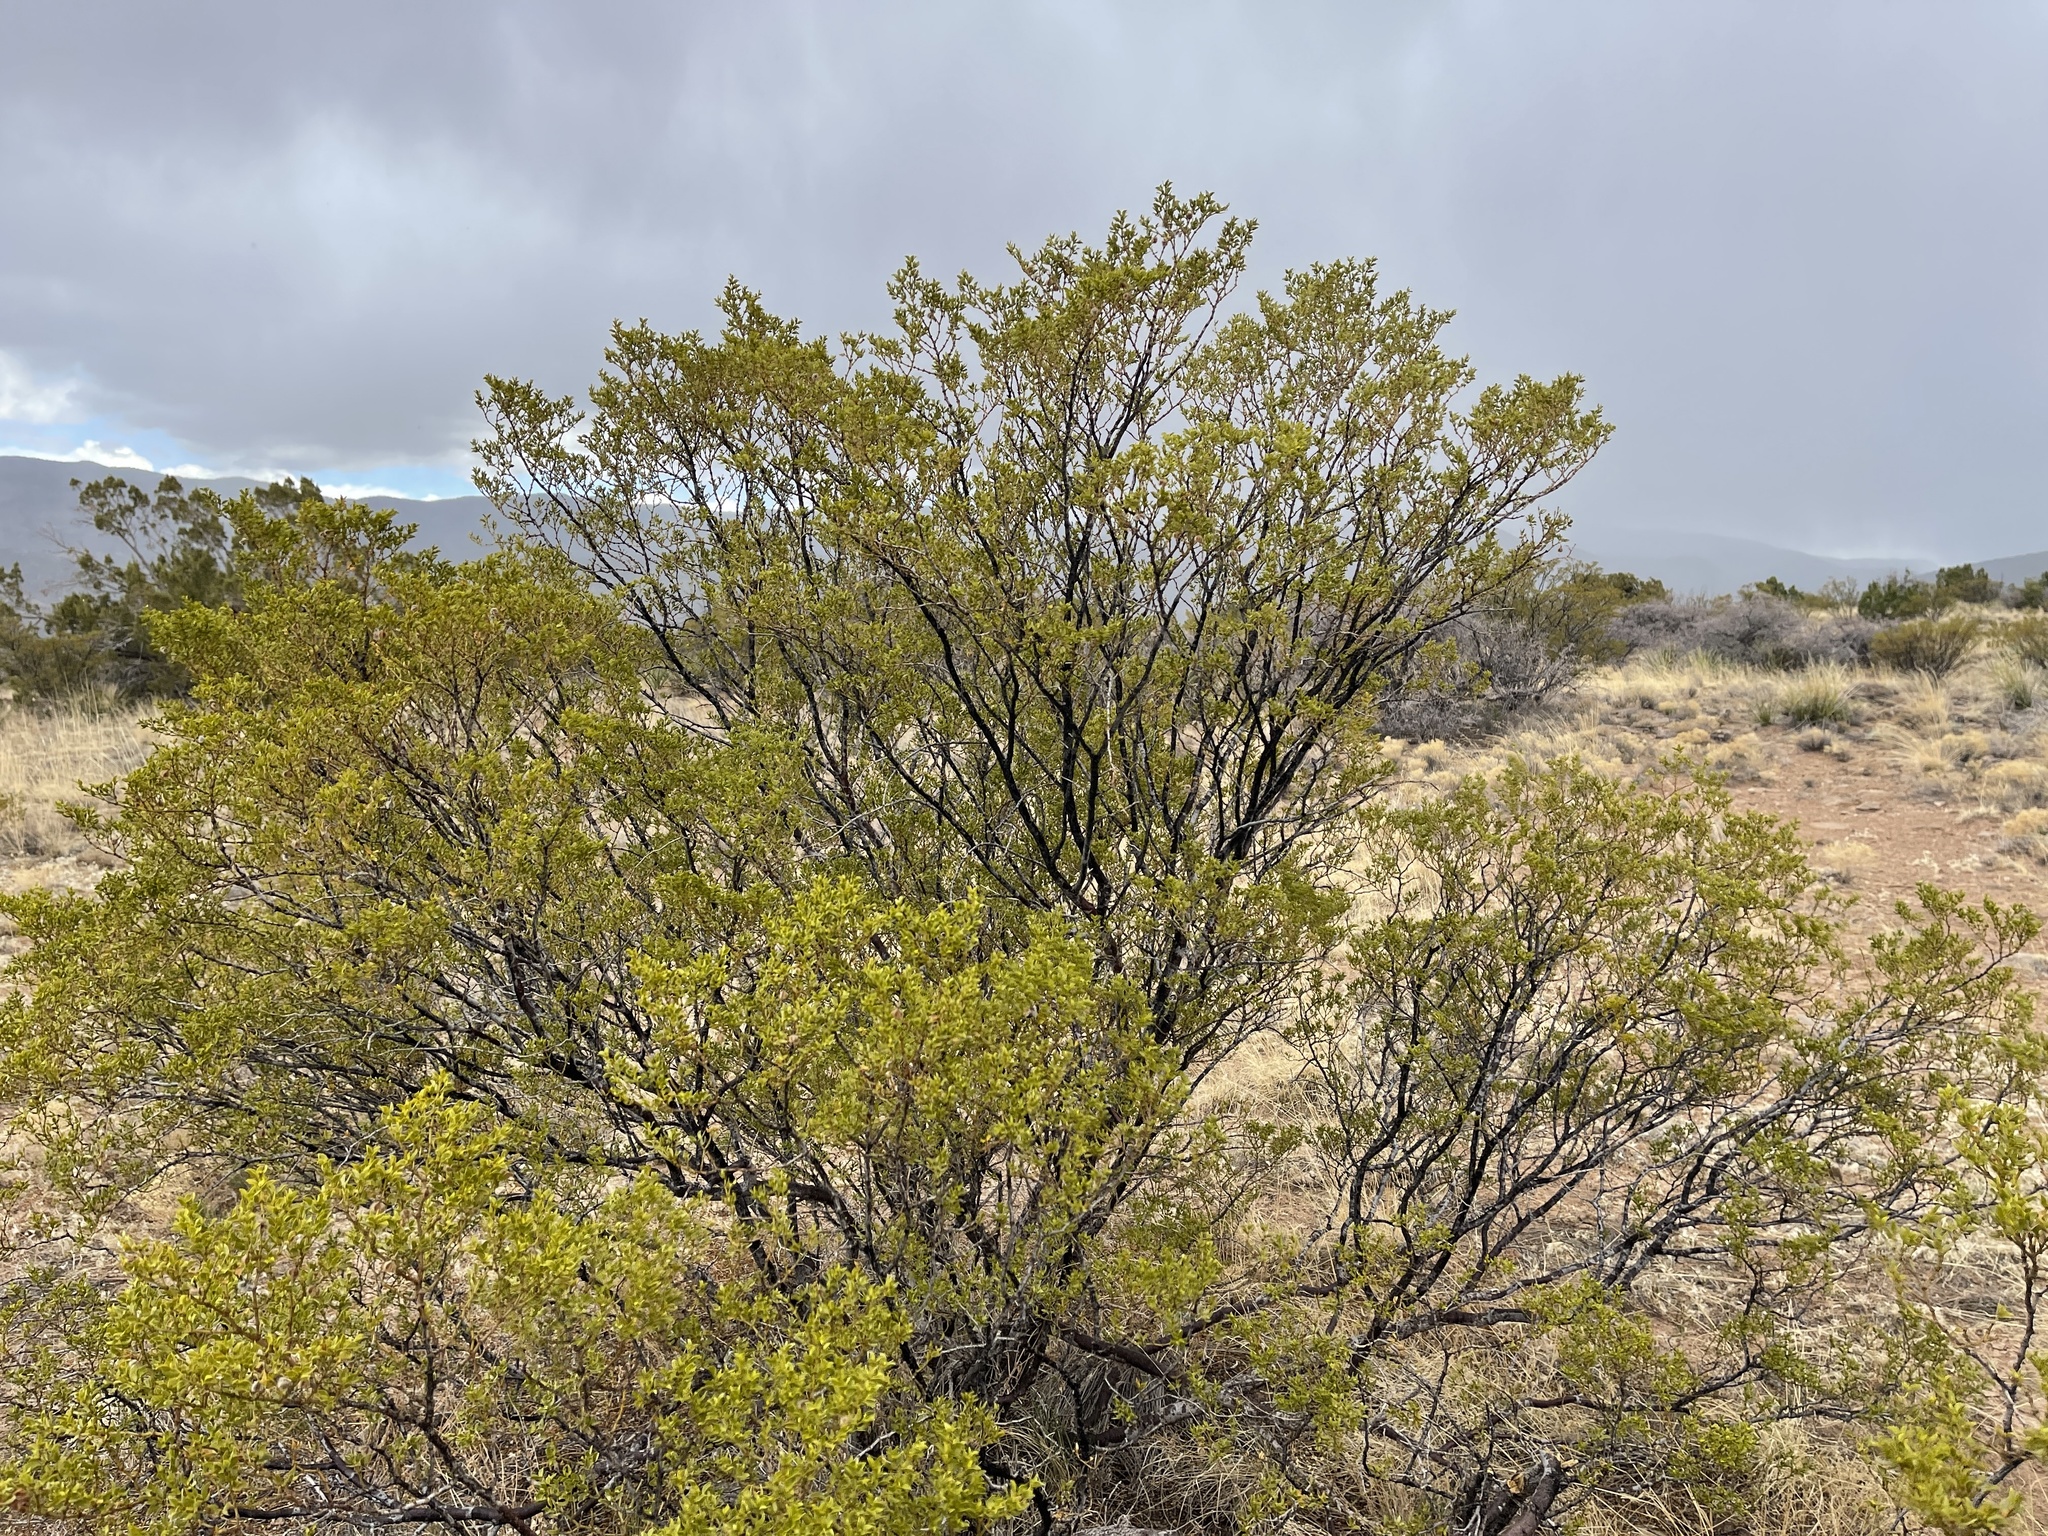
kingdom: Plantae
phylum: Tracheophyta
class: Magnoliopsida
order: Zygophyllales
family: Zygophyllaceae
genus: Larrea
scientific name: Larrea tridentata
